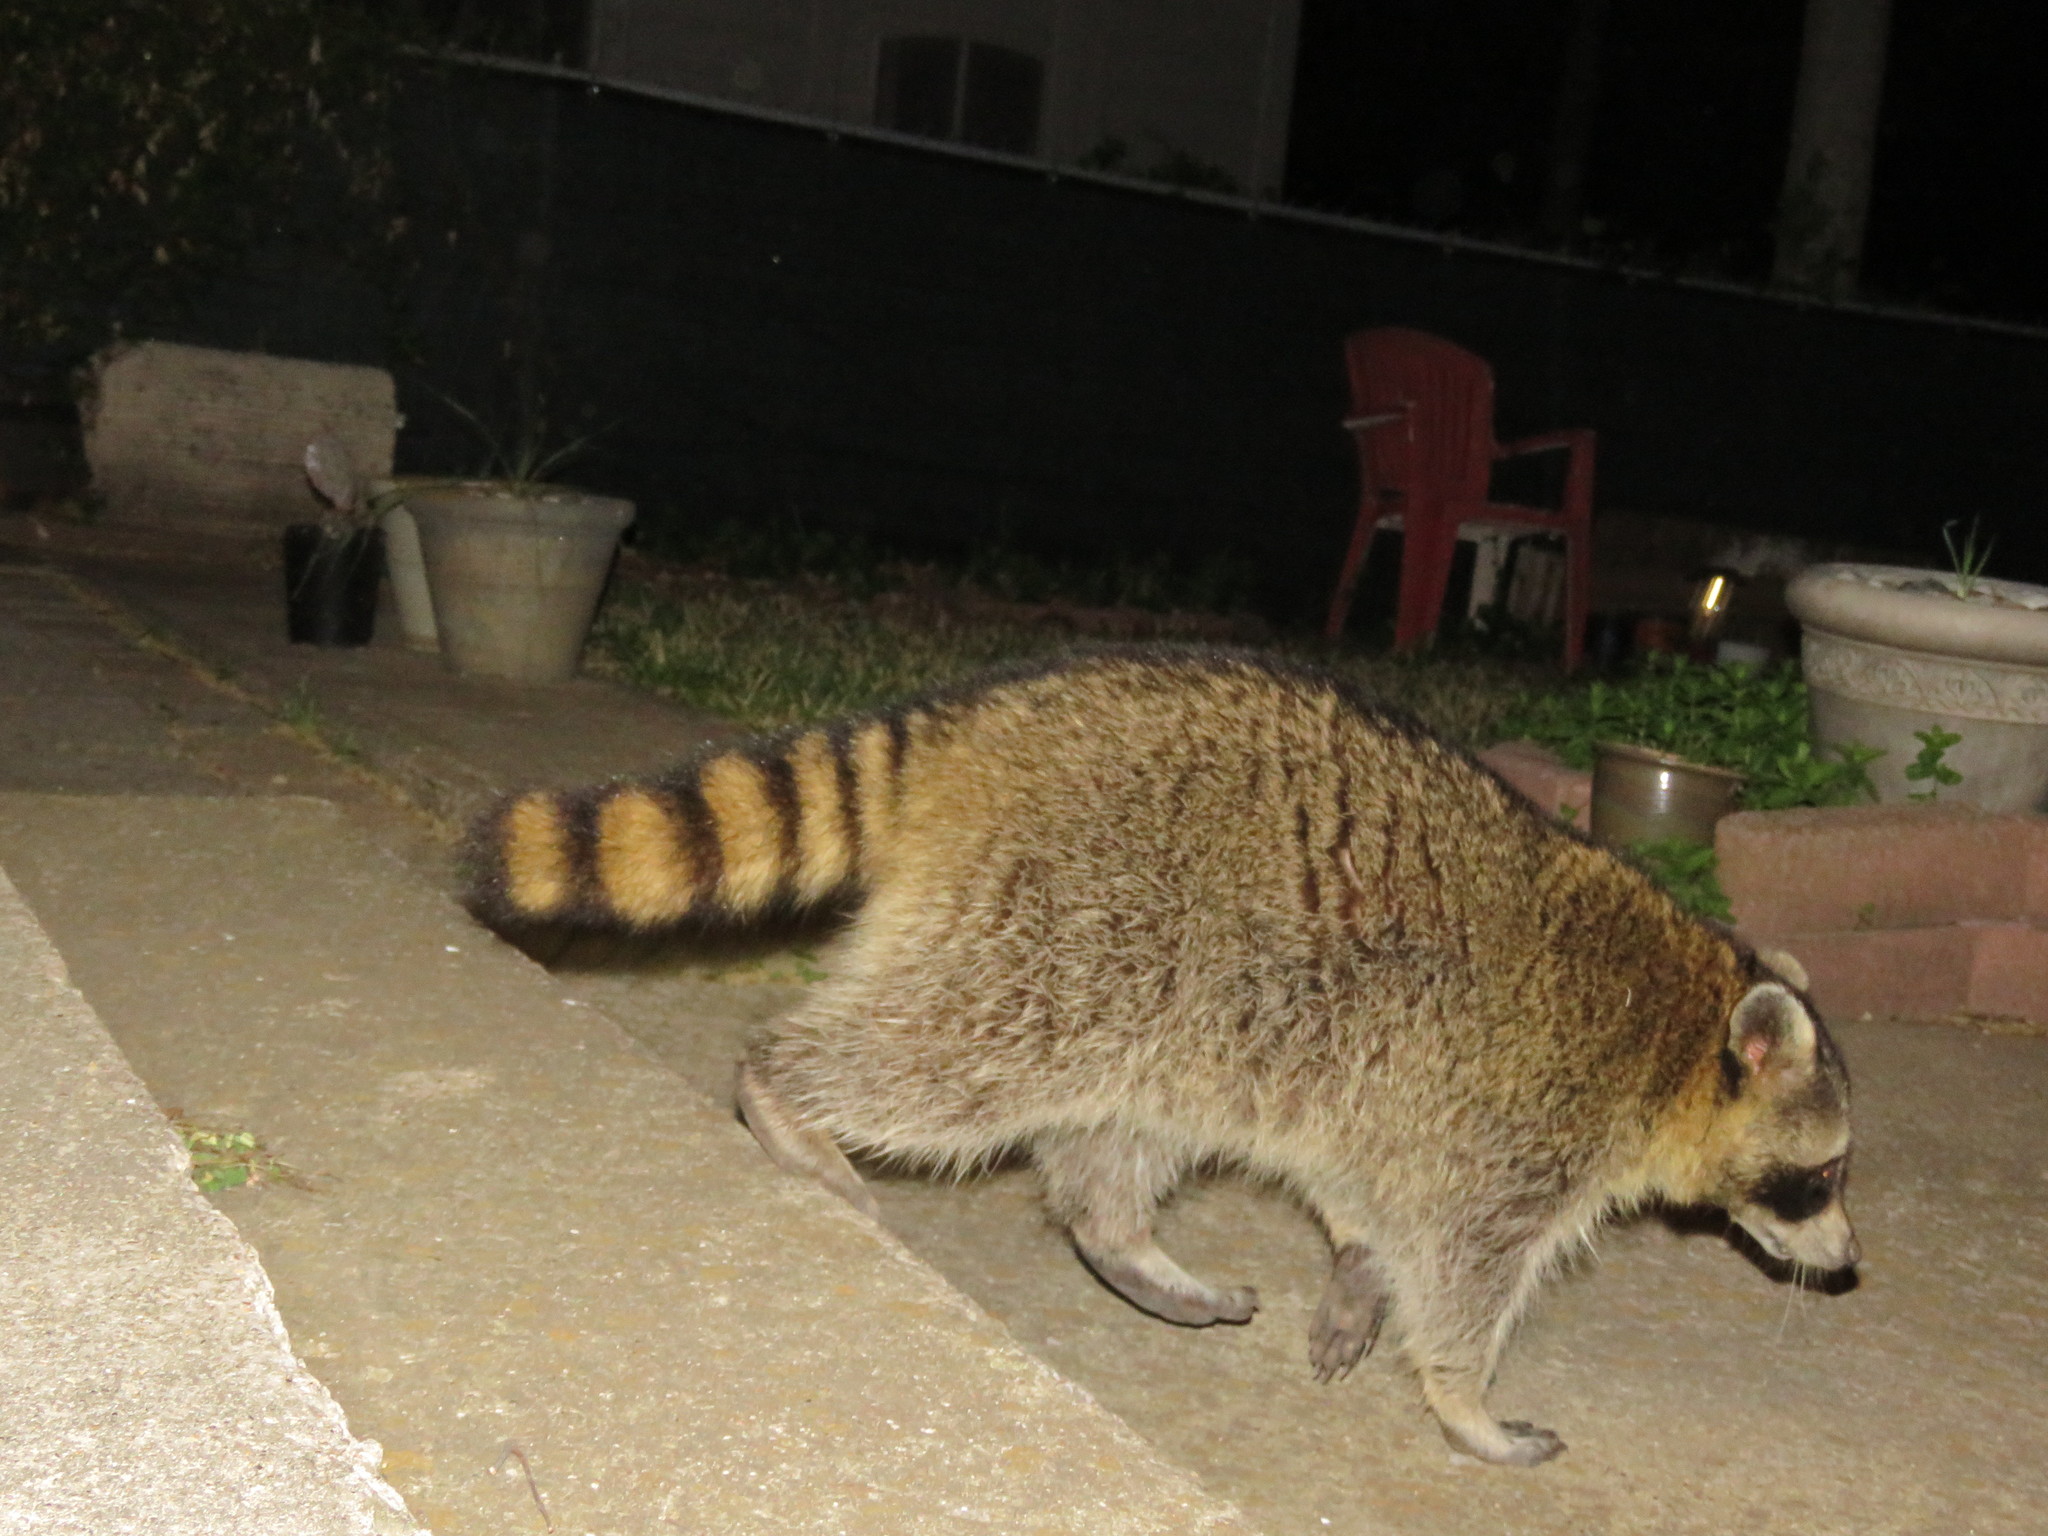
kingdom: Animalia
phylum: Chordata
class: Mammalia
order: Carnivora
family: Procyonidae
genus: Procyon
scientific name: Procyon lotor
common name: Raccoon
